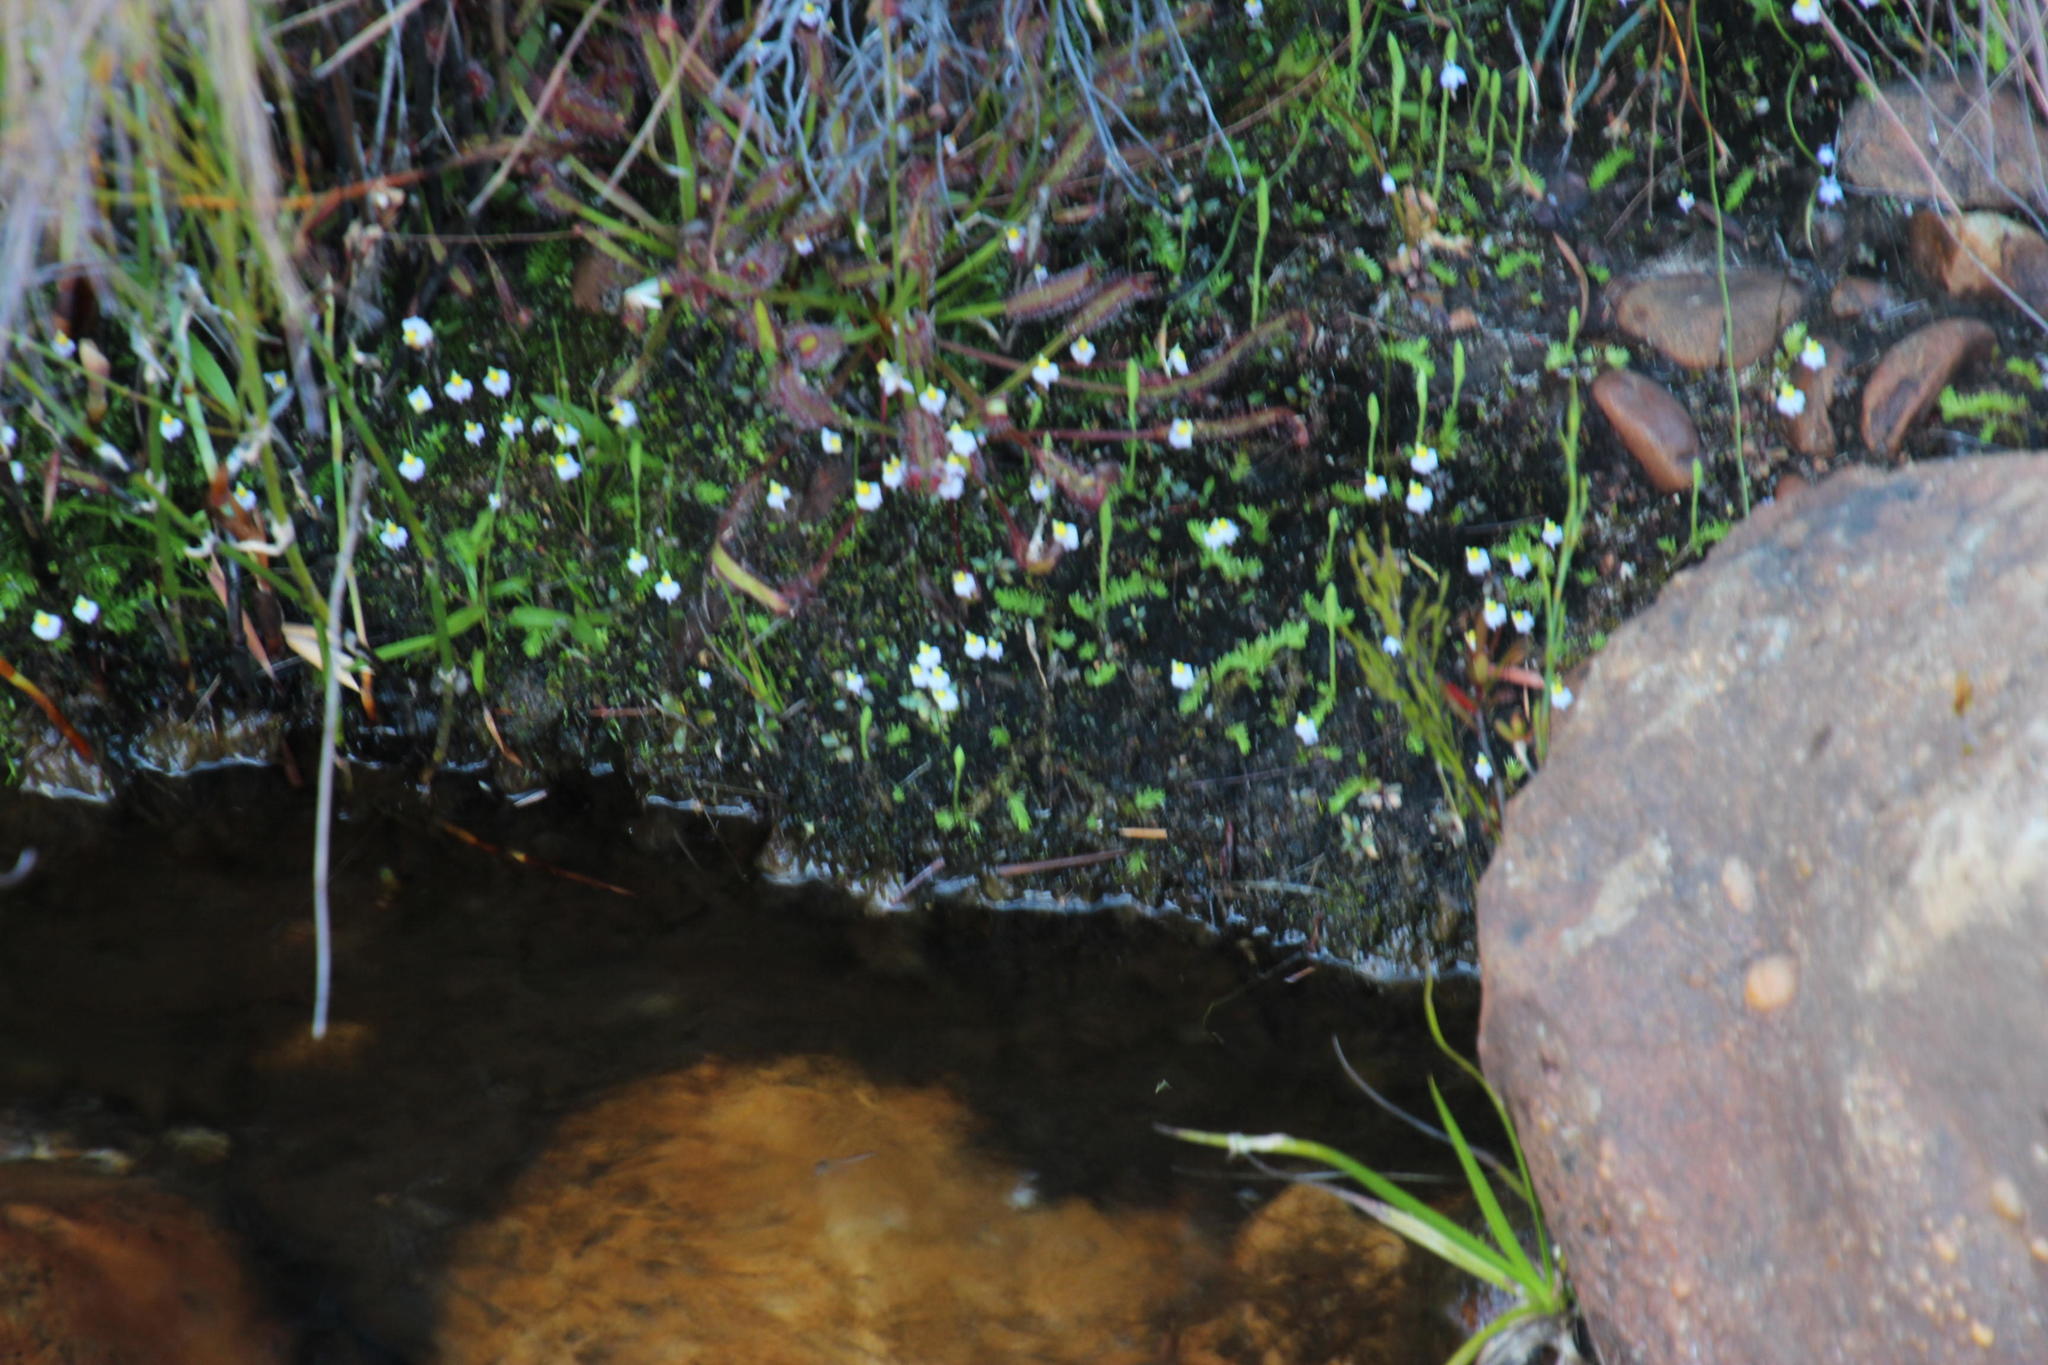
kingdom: Plantae
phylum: Tracheophyta
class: Magnoliopsida
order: Lamiales
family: Lentibulariaceae
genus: Utricularia
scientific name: Utricularia bisquamata
